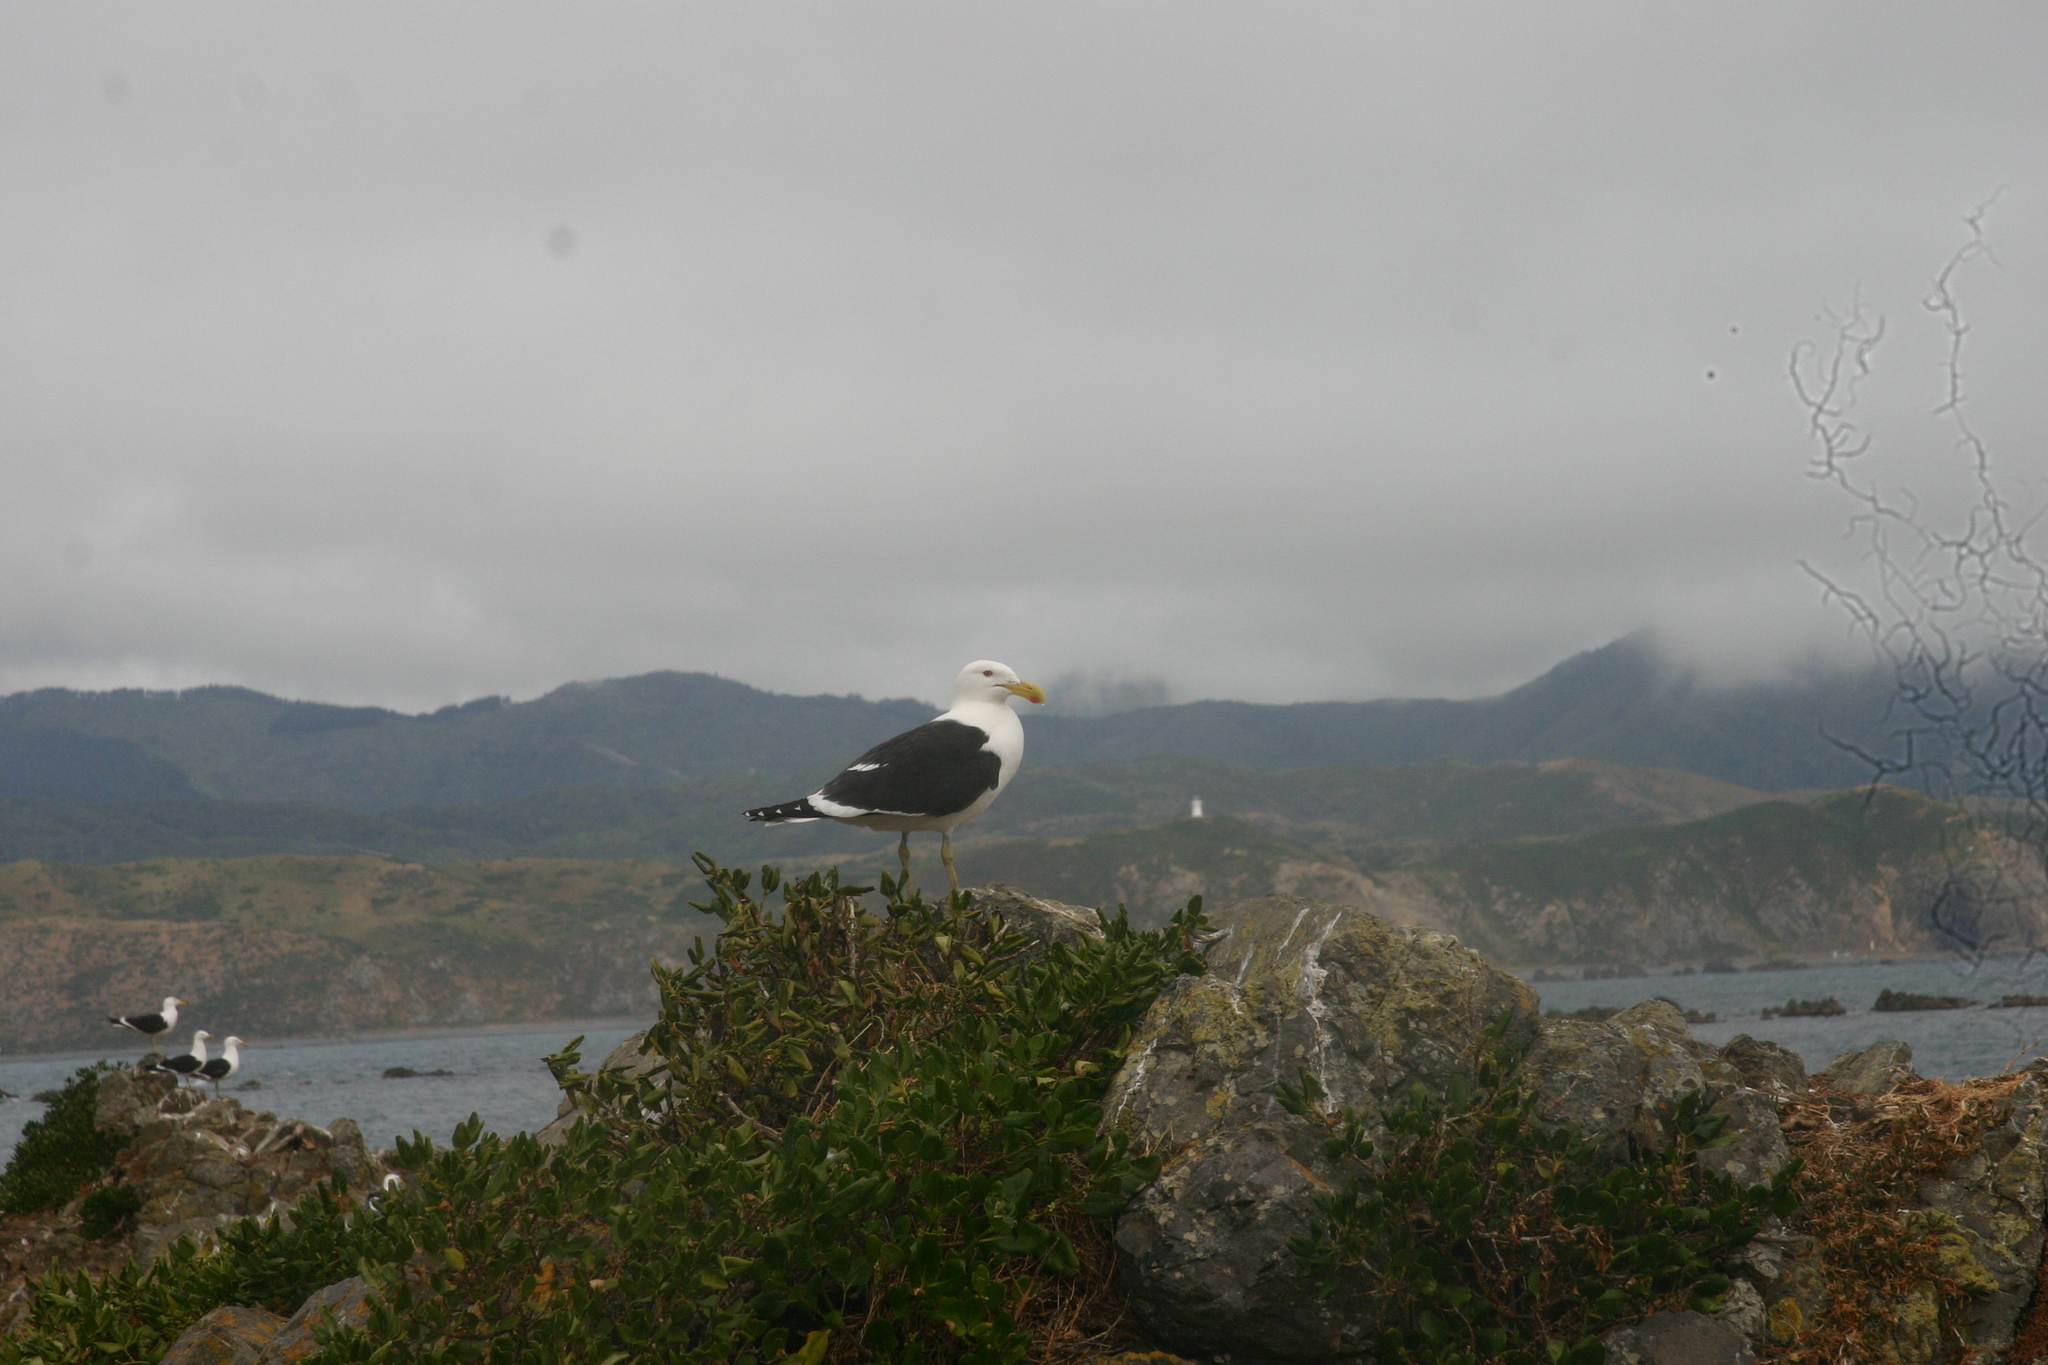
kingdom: Animalia
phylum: Chordata
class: Aves
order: Charadriiformes
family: Laridae
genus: Larus
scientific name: Larus dominicanus
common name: Kelp gull
